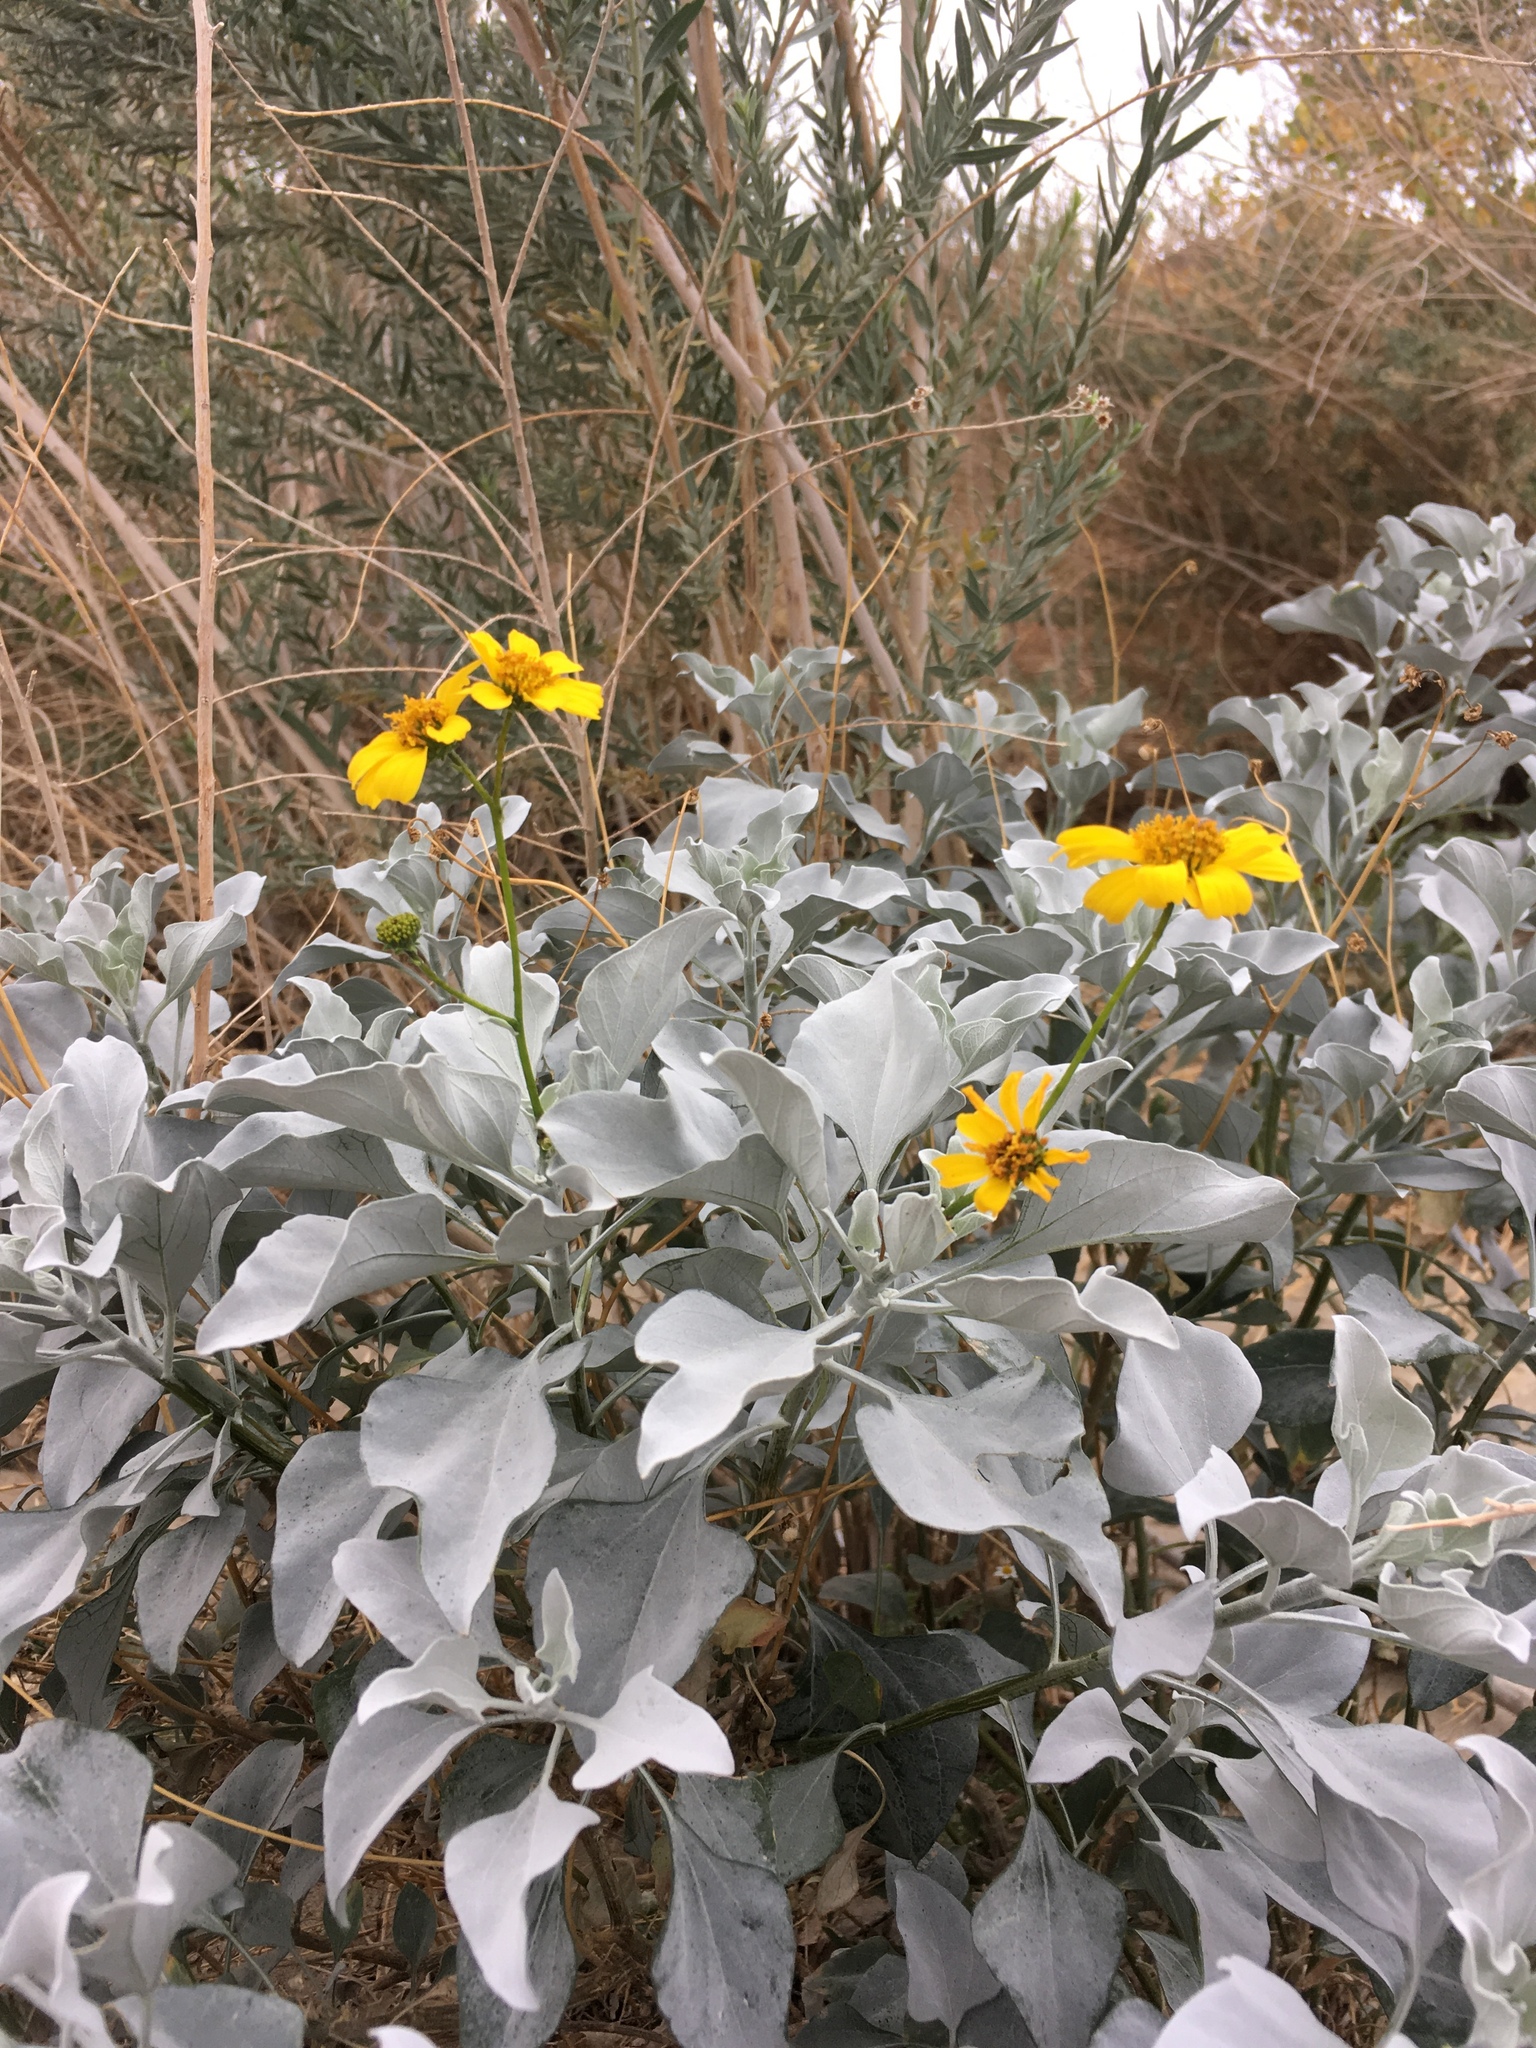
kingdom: Plantae
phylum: Tracheophyta
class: Magnoliopsida
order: Asterales
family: Asteraceae
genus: Encelia
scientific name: Encelia farinosa
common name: Brittlebush
